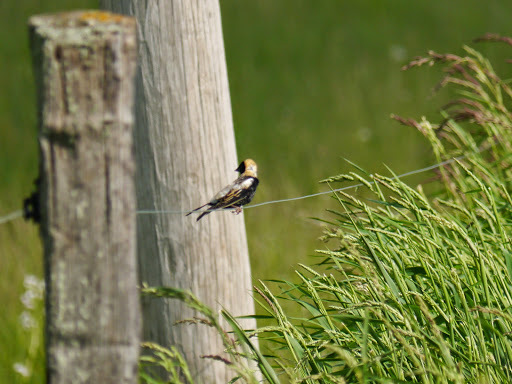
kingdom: Animalia
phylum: Chordata
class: Aves
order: Passeriformes
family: Icteridae
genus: Dolichonyx
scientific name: Dolichonyx oryzivorus
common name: Bobolink
